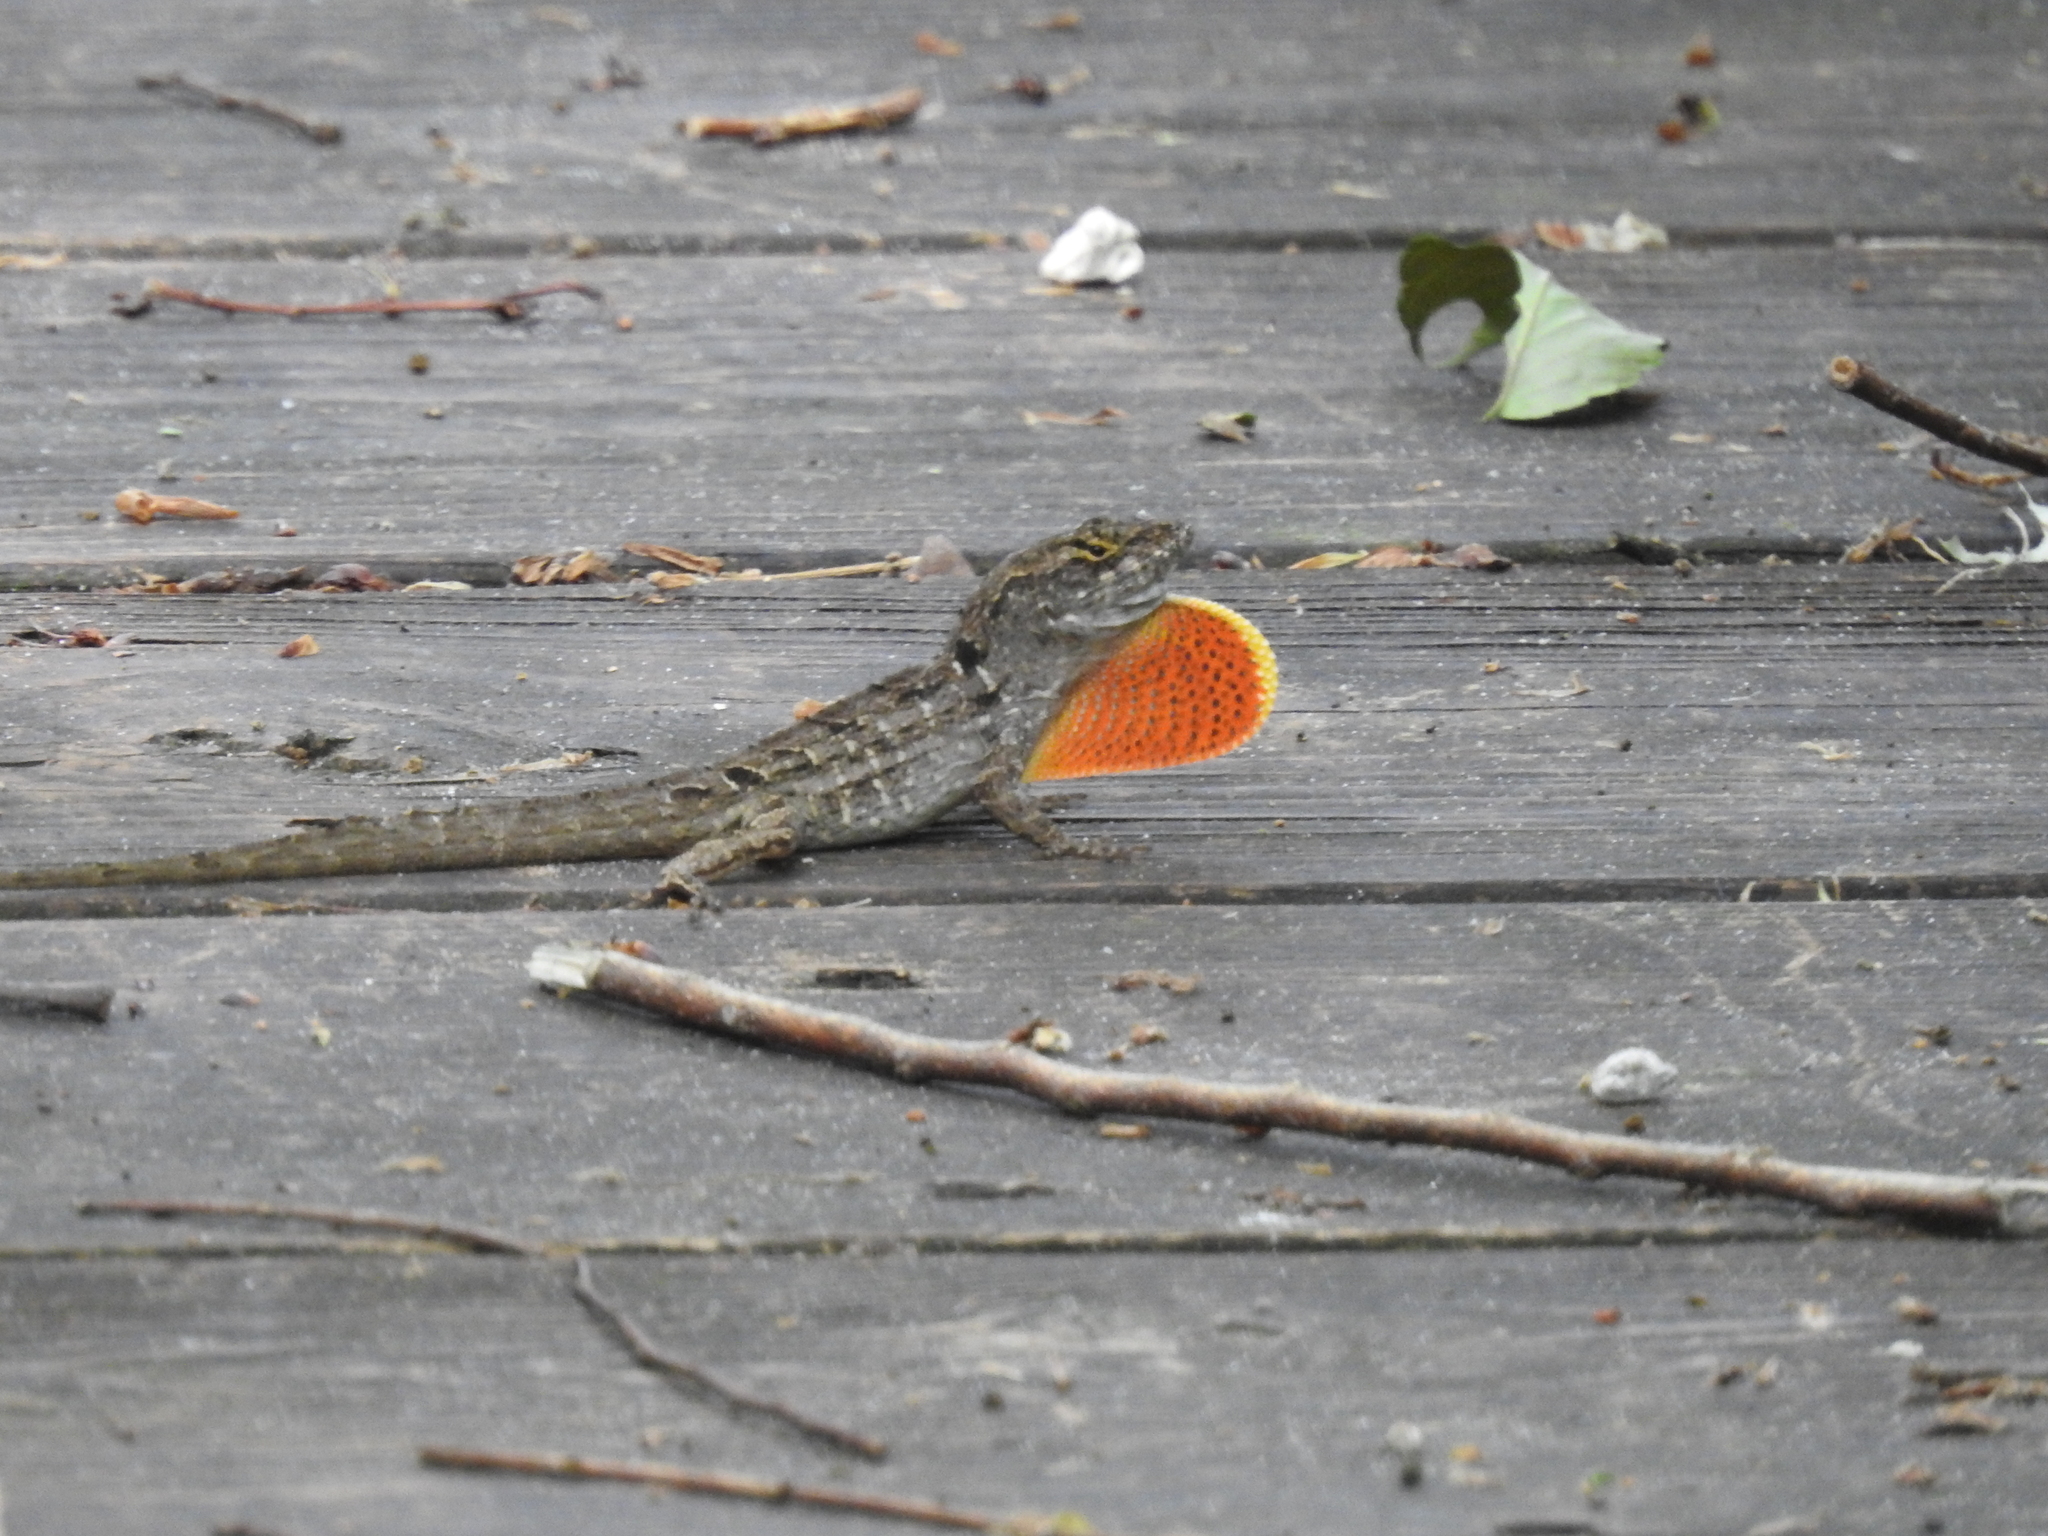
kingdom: Animalia
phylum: Chordata
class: Squamata
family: Dactyloidae
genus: Anolis
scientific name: Anolis sagrei
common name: Brown anole
